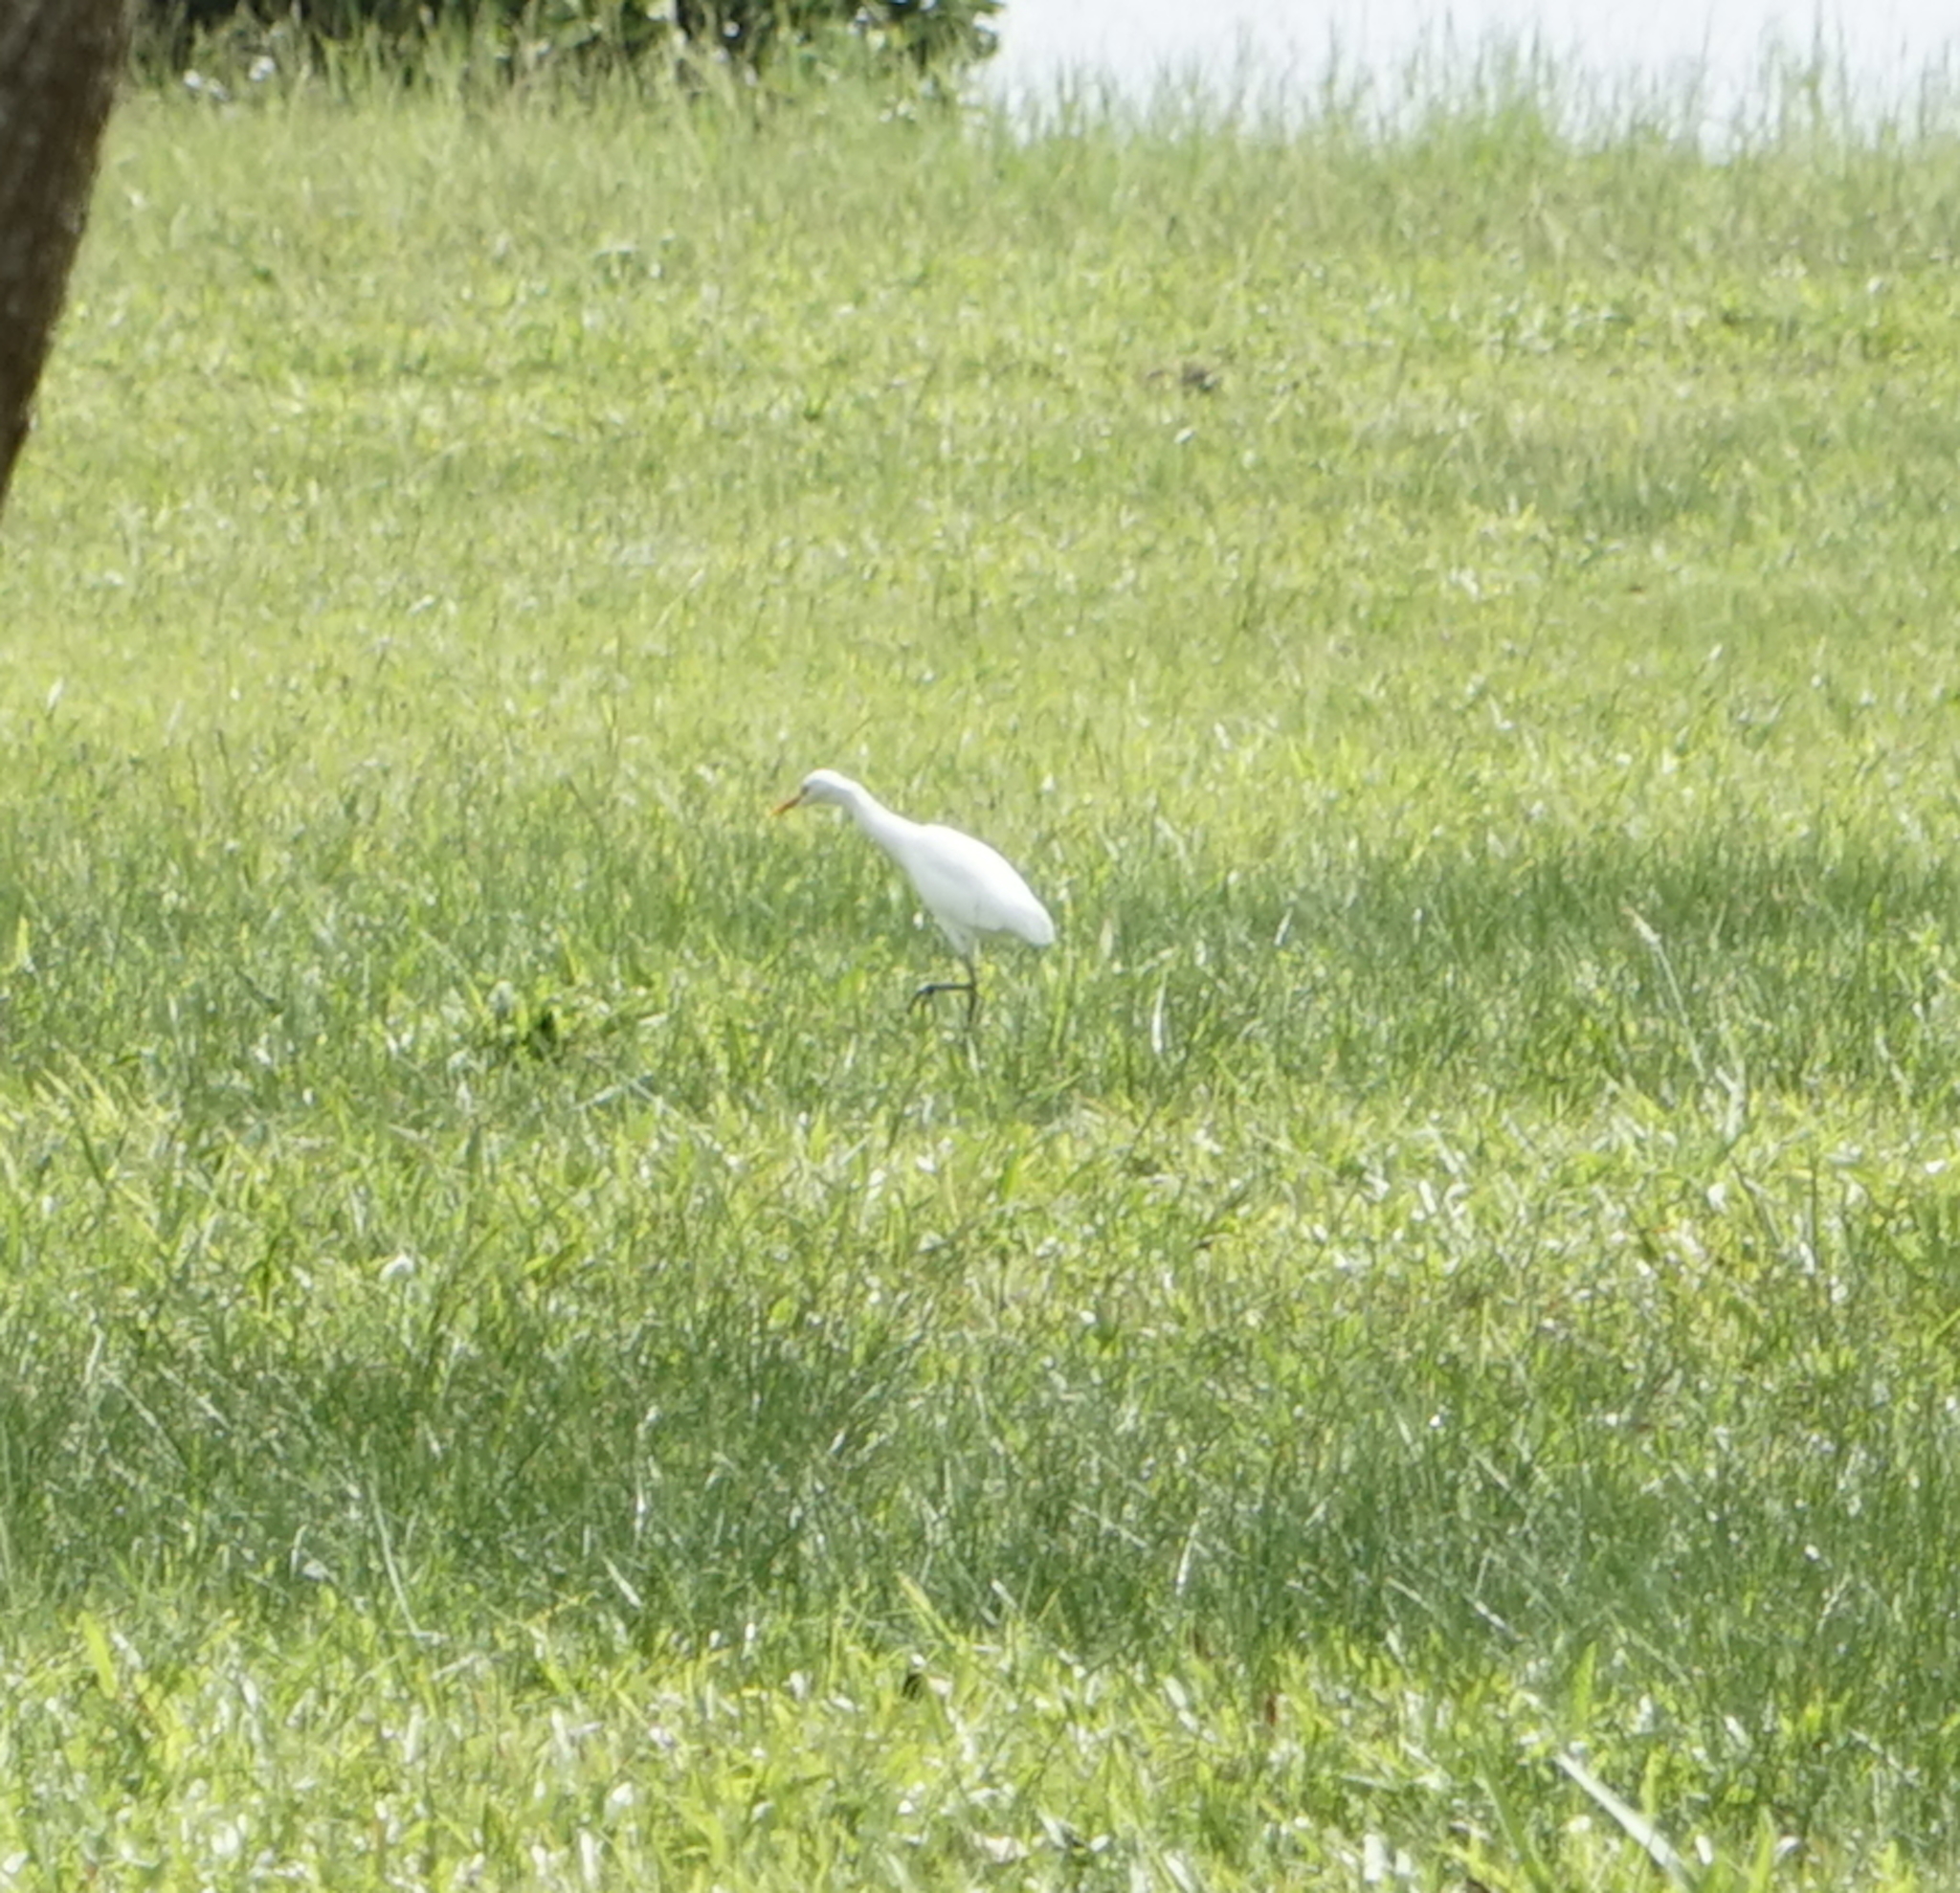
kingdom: Animalia
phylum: Chordata
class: Aves
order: Pelecaniformes
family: Ardeidae
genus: Bubulcus
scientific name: Bubulcus coromandus
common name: Eastern cattle egret
